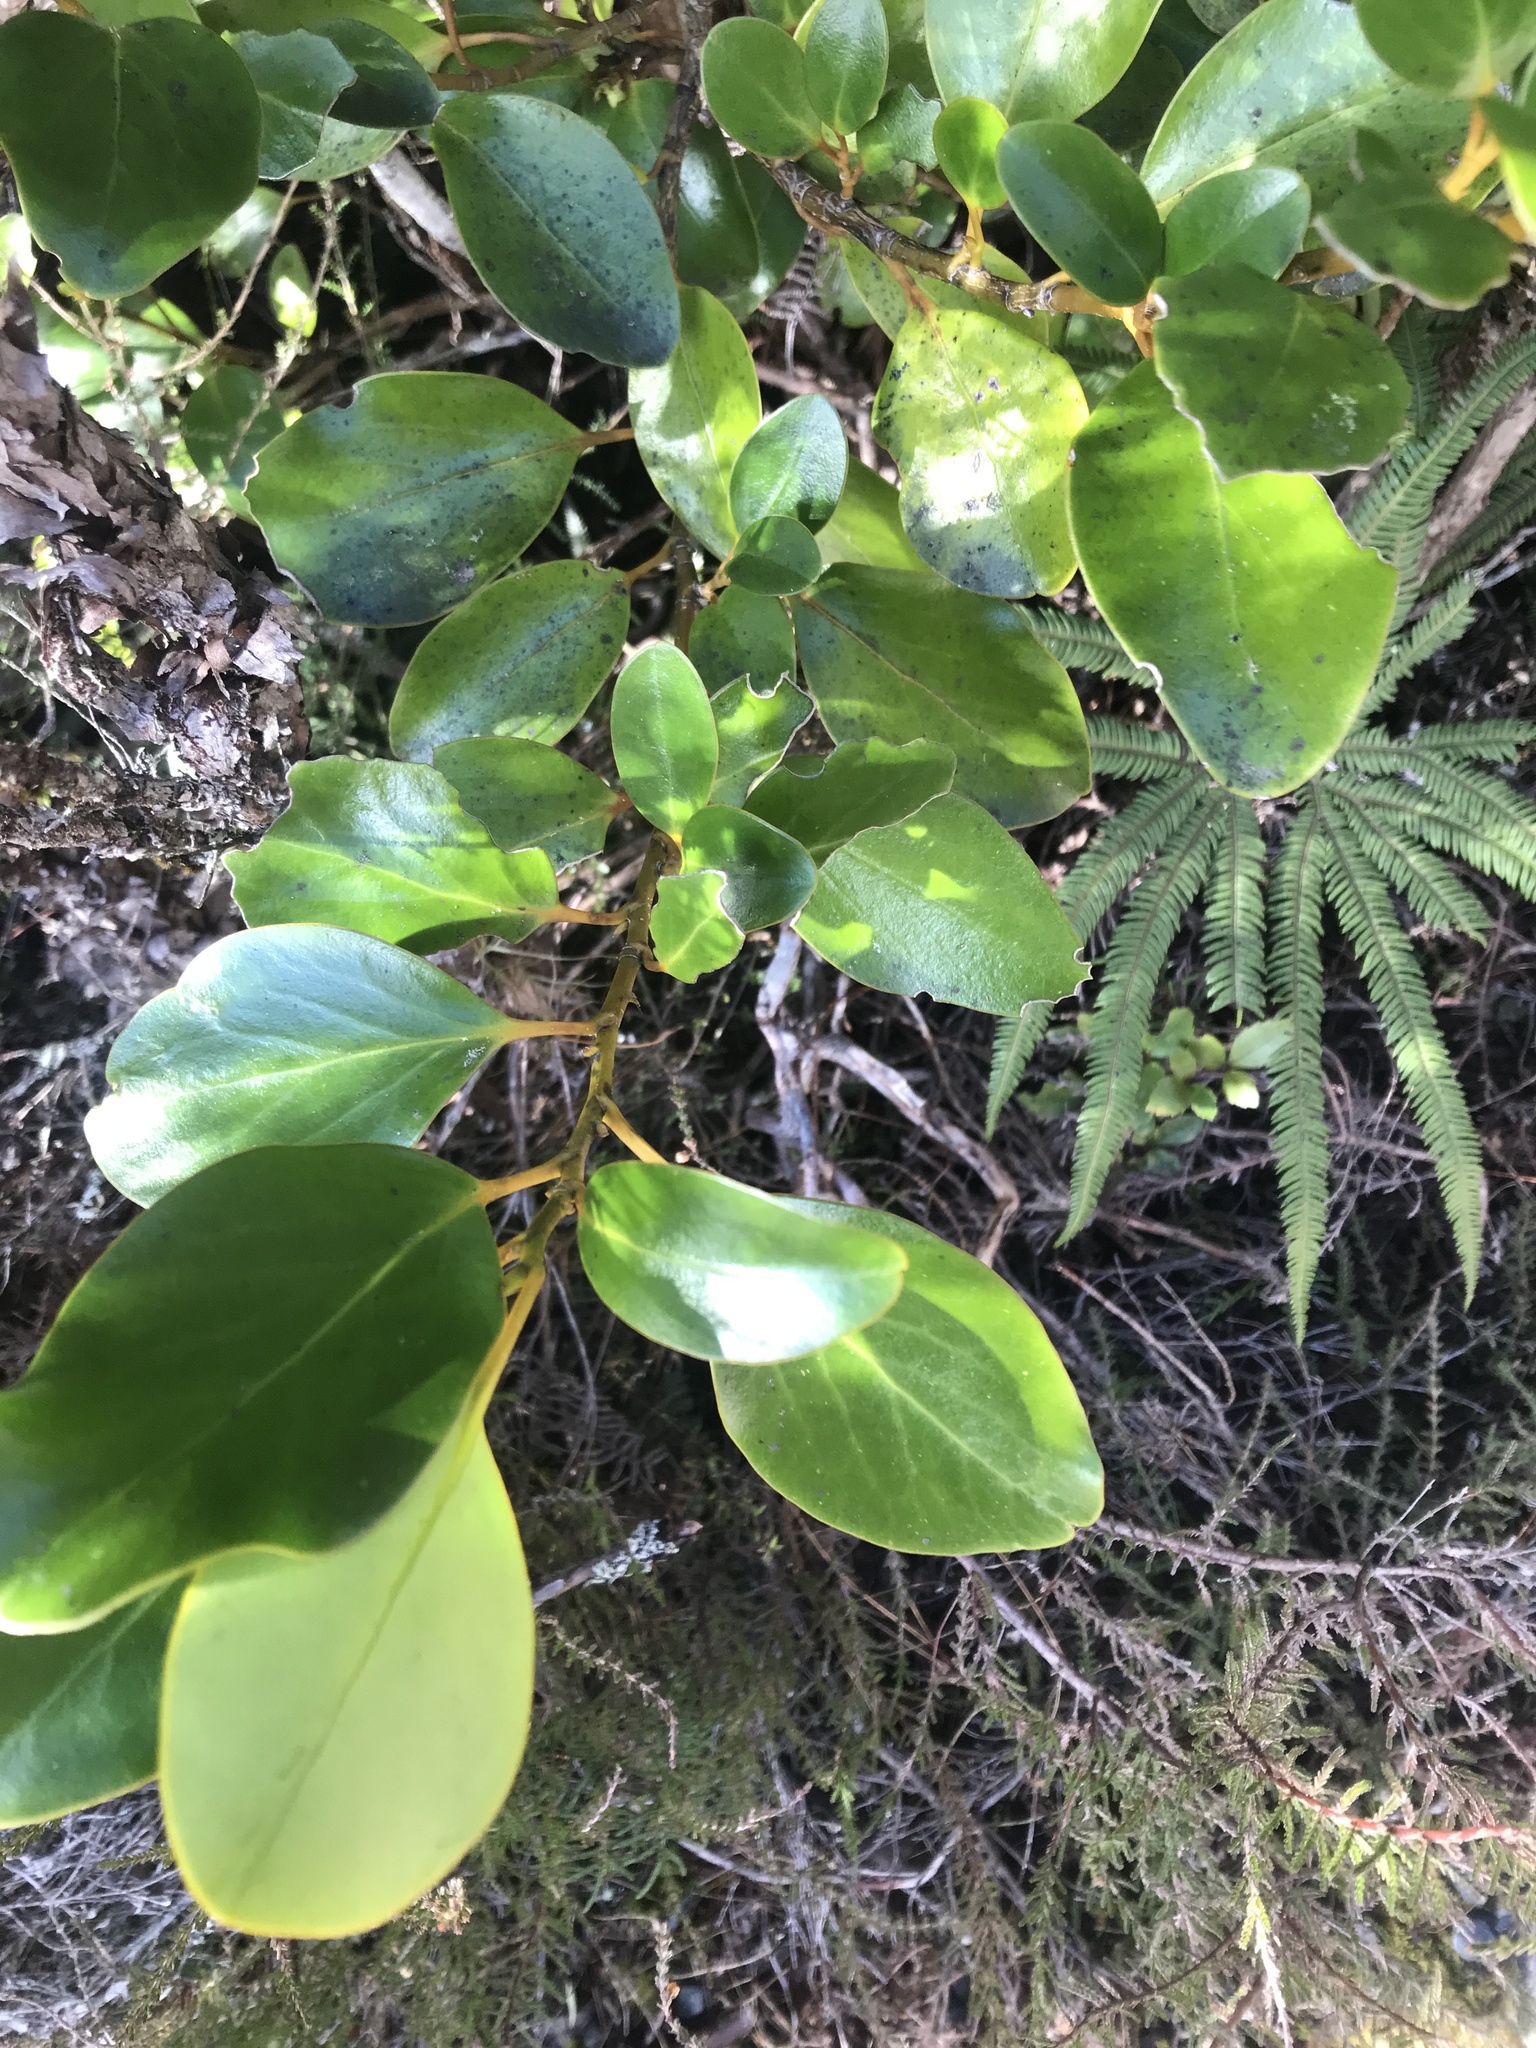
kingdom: Plantae
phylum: Tracheophyta
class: Magnoliopsida
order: Apiales
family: Griseliniaceae
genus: Griselinia
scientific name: Griselinia littoralis
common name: New zealand broadleaf
